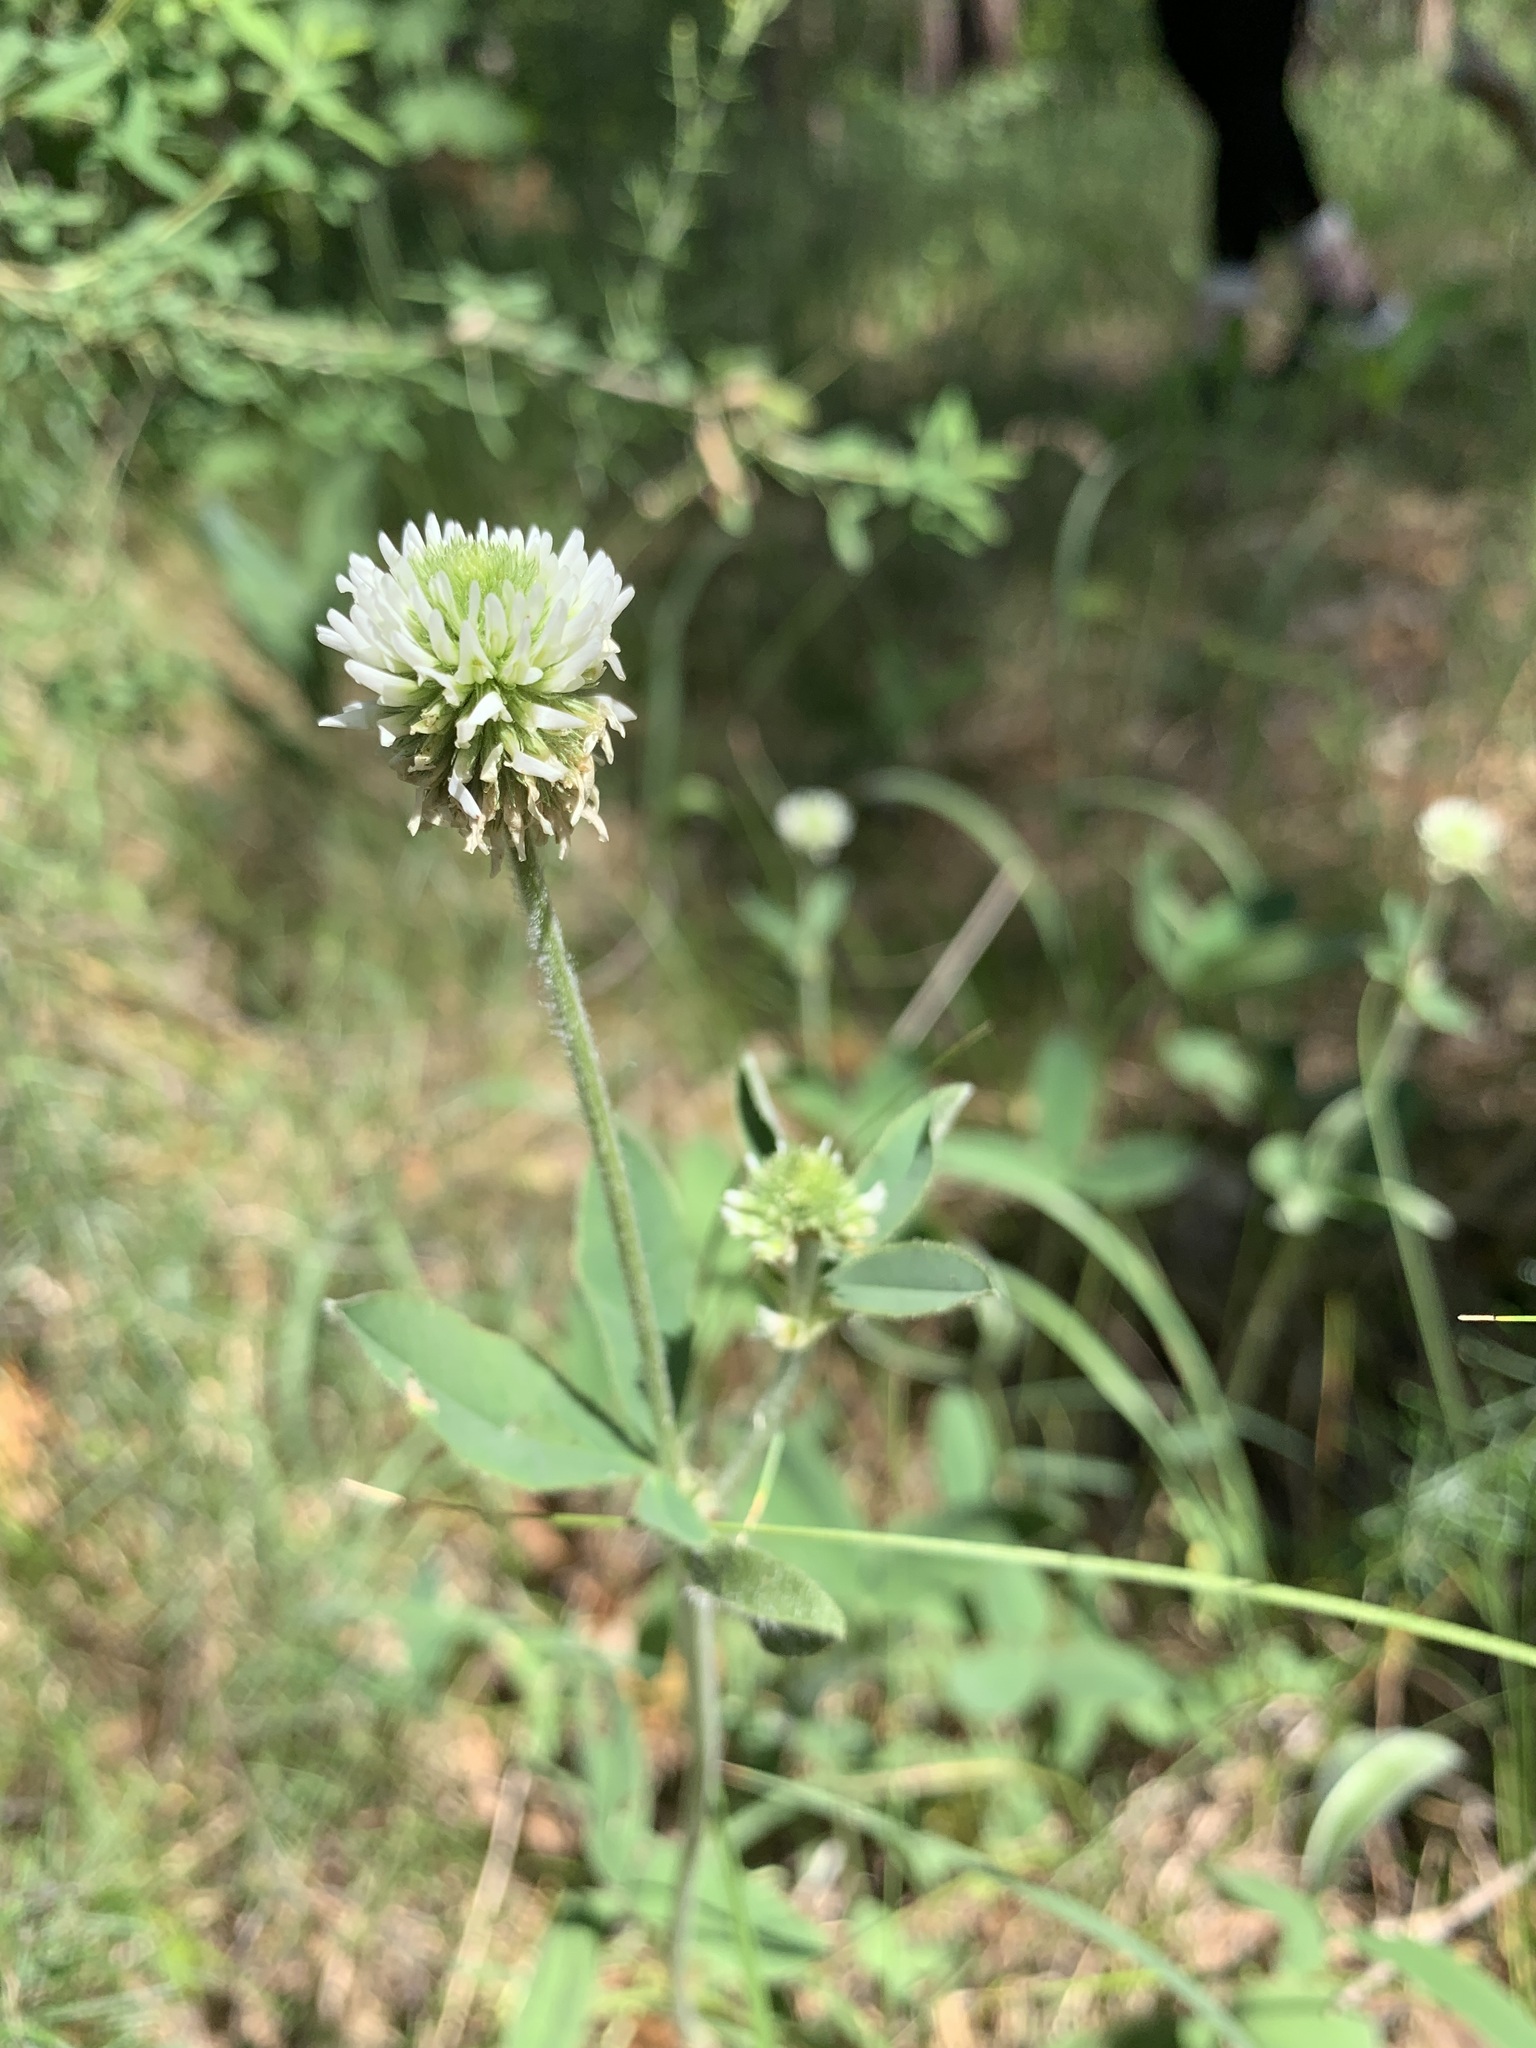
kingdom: Plantae
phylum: Tracheophyta
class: Magnoliopsida
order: Fabales
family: Fabaceae
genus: Trifolium
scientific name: Trifolium montanum
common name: Mountain clover
